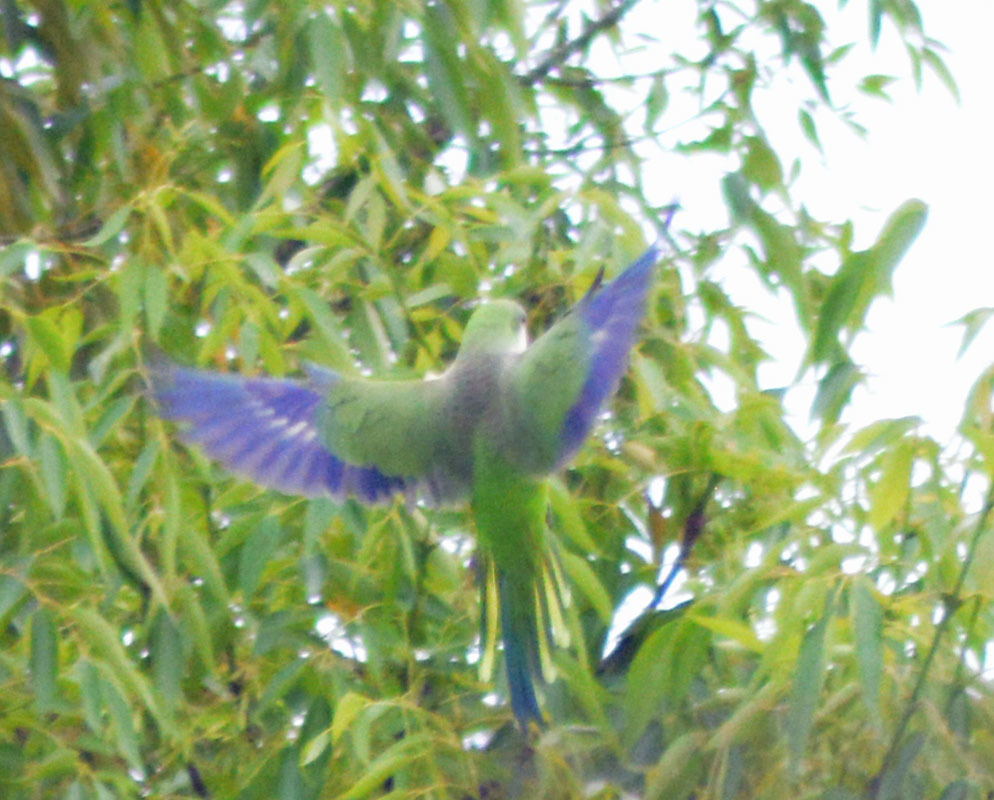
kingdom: Animalia
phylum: Chordata
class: Aves
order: Psittaciformes
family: Psittacidae
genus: Myiopsitta
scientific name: Myiopsitta monachus
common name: Monk parakeet
